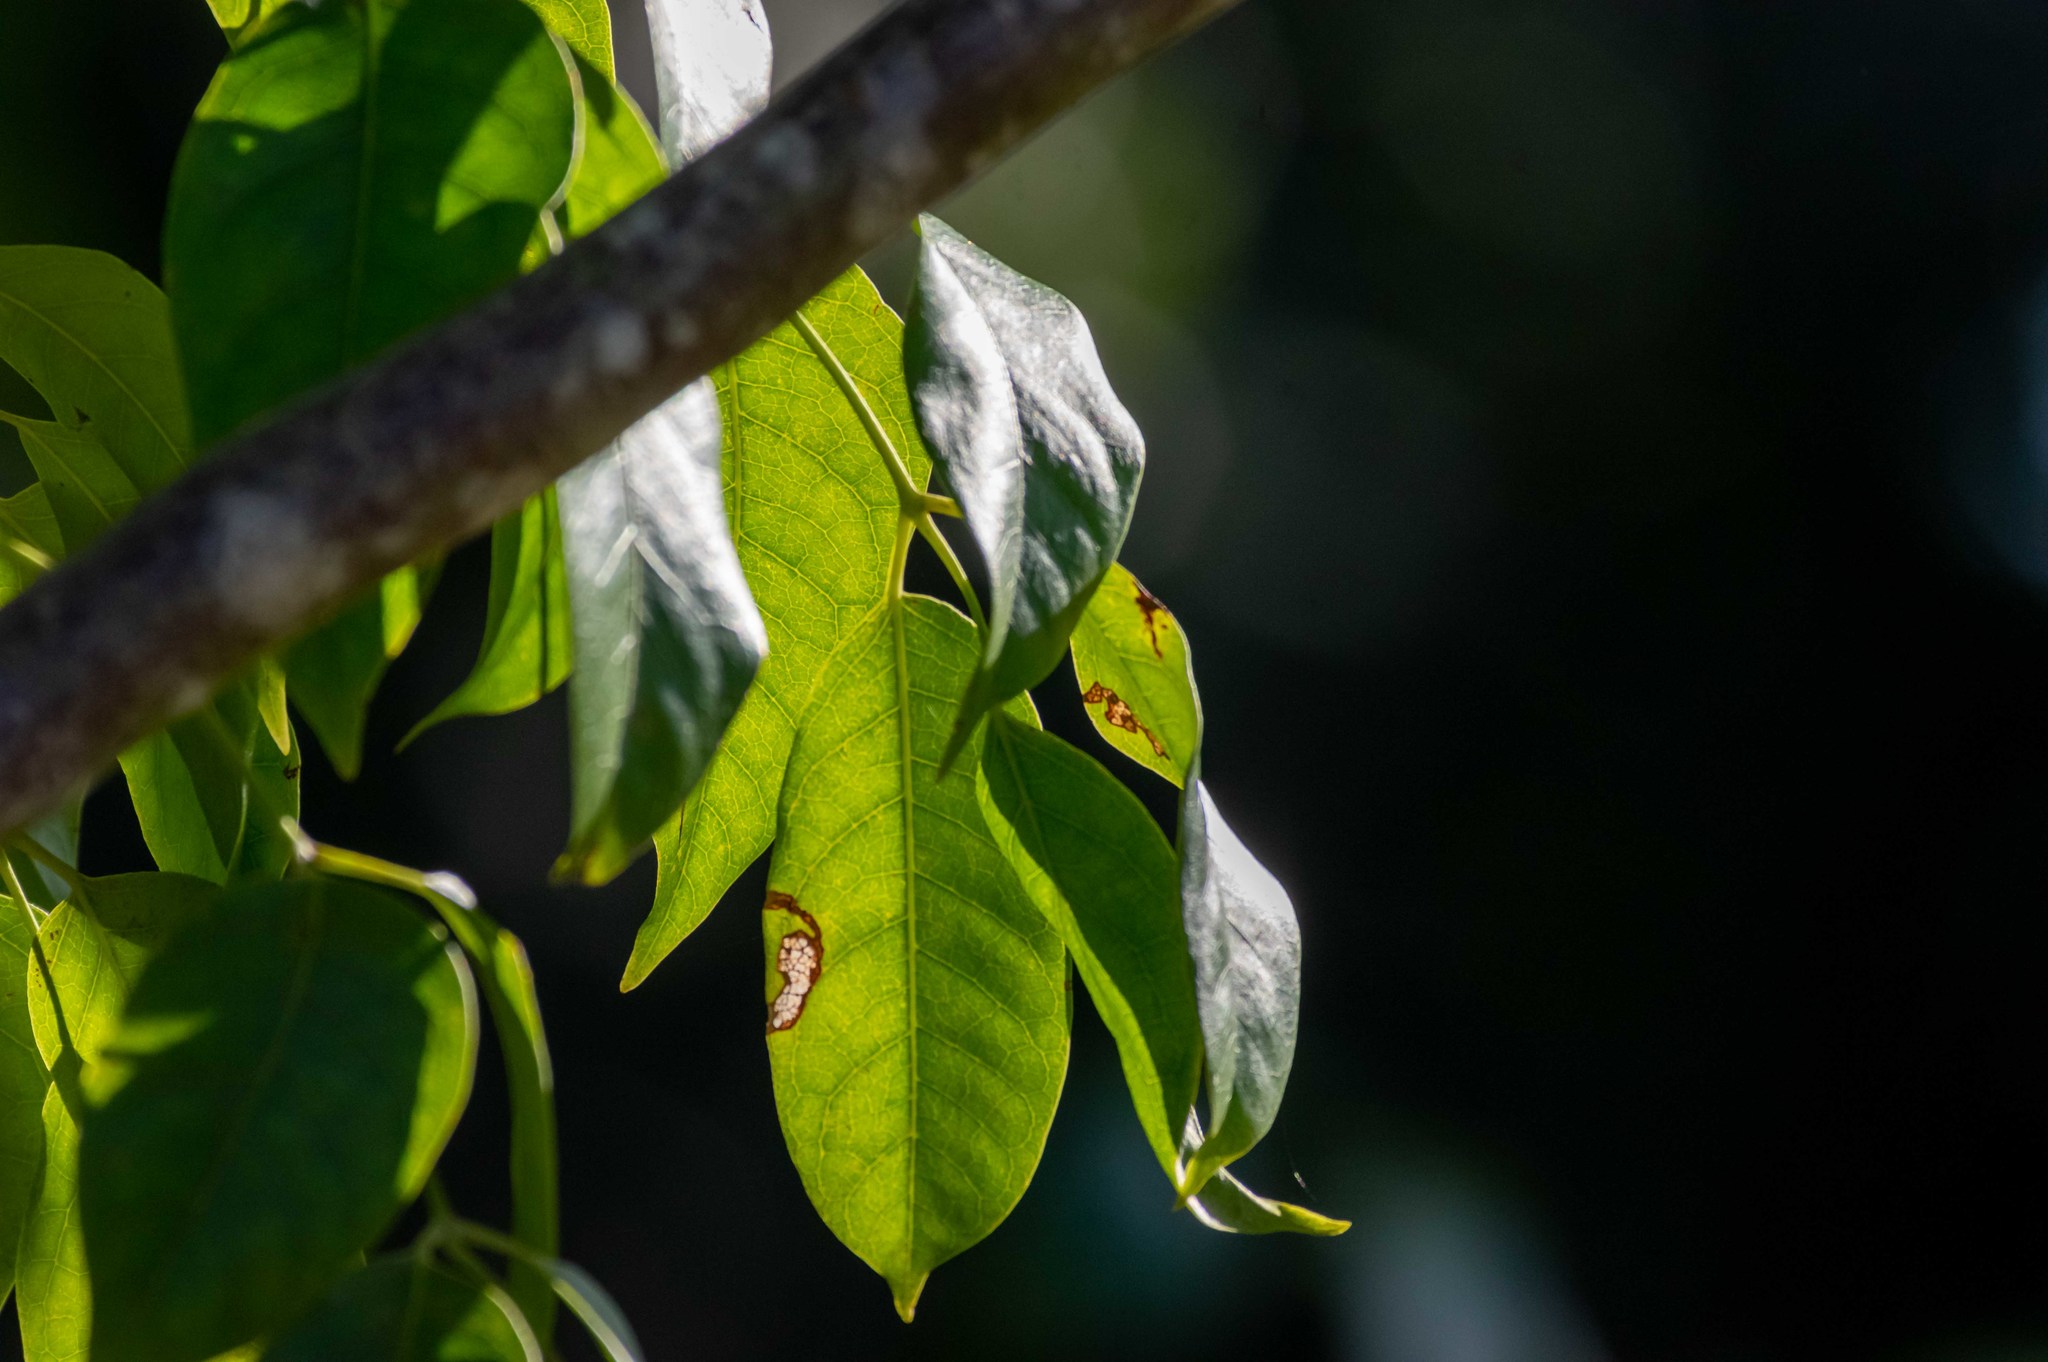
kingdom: Plantae
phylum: Tracheophyta
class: Magnoliopsida
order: Sapindales
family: Burseraceae
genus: Bursera
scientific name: Bursera simaruba
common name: Turpentine tree
